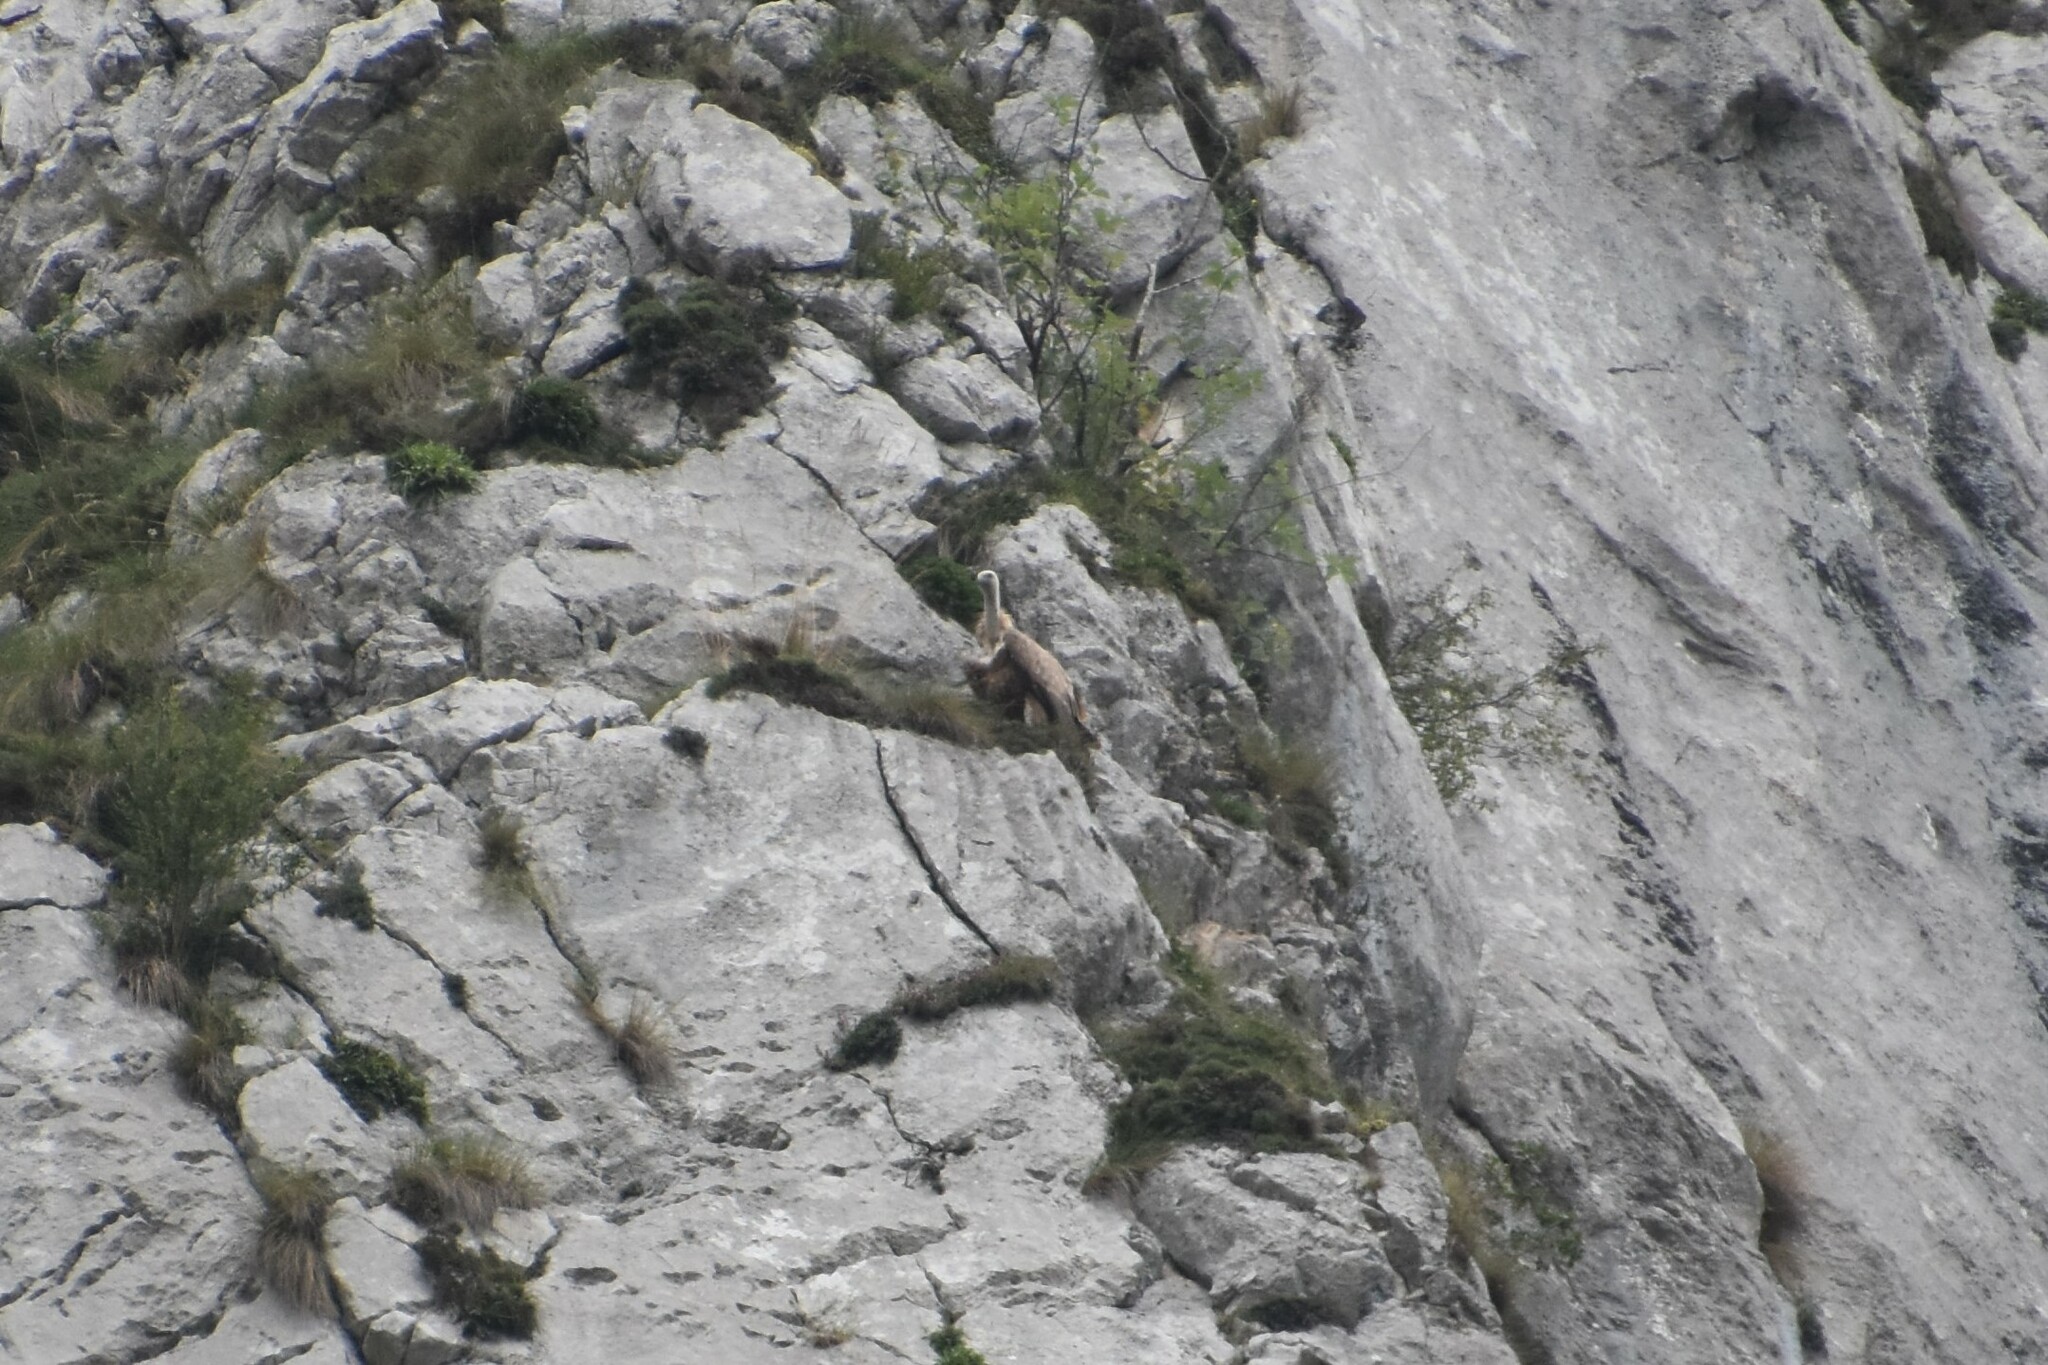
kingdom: Animalia
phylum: Chordata
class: Aves
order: Accipitriformes
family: Accipitridae
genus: Gyps
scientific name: Gyps fulvus
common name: Griffon vulture
